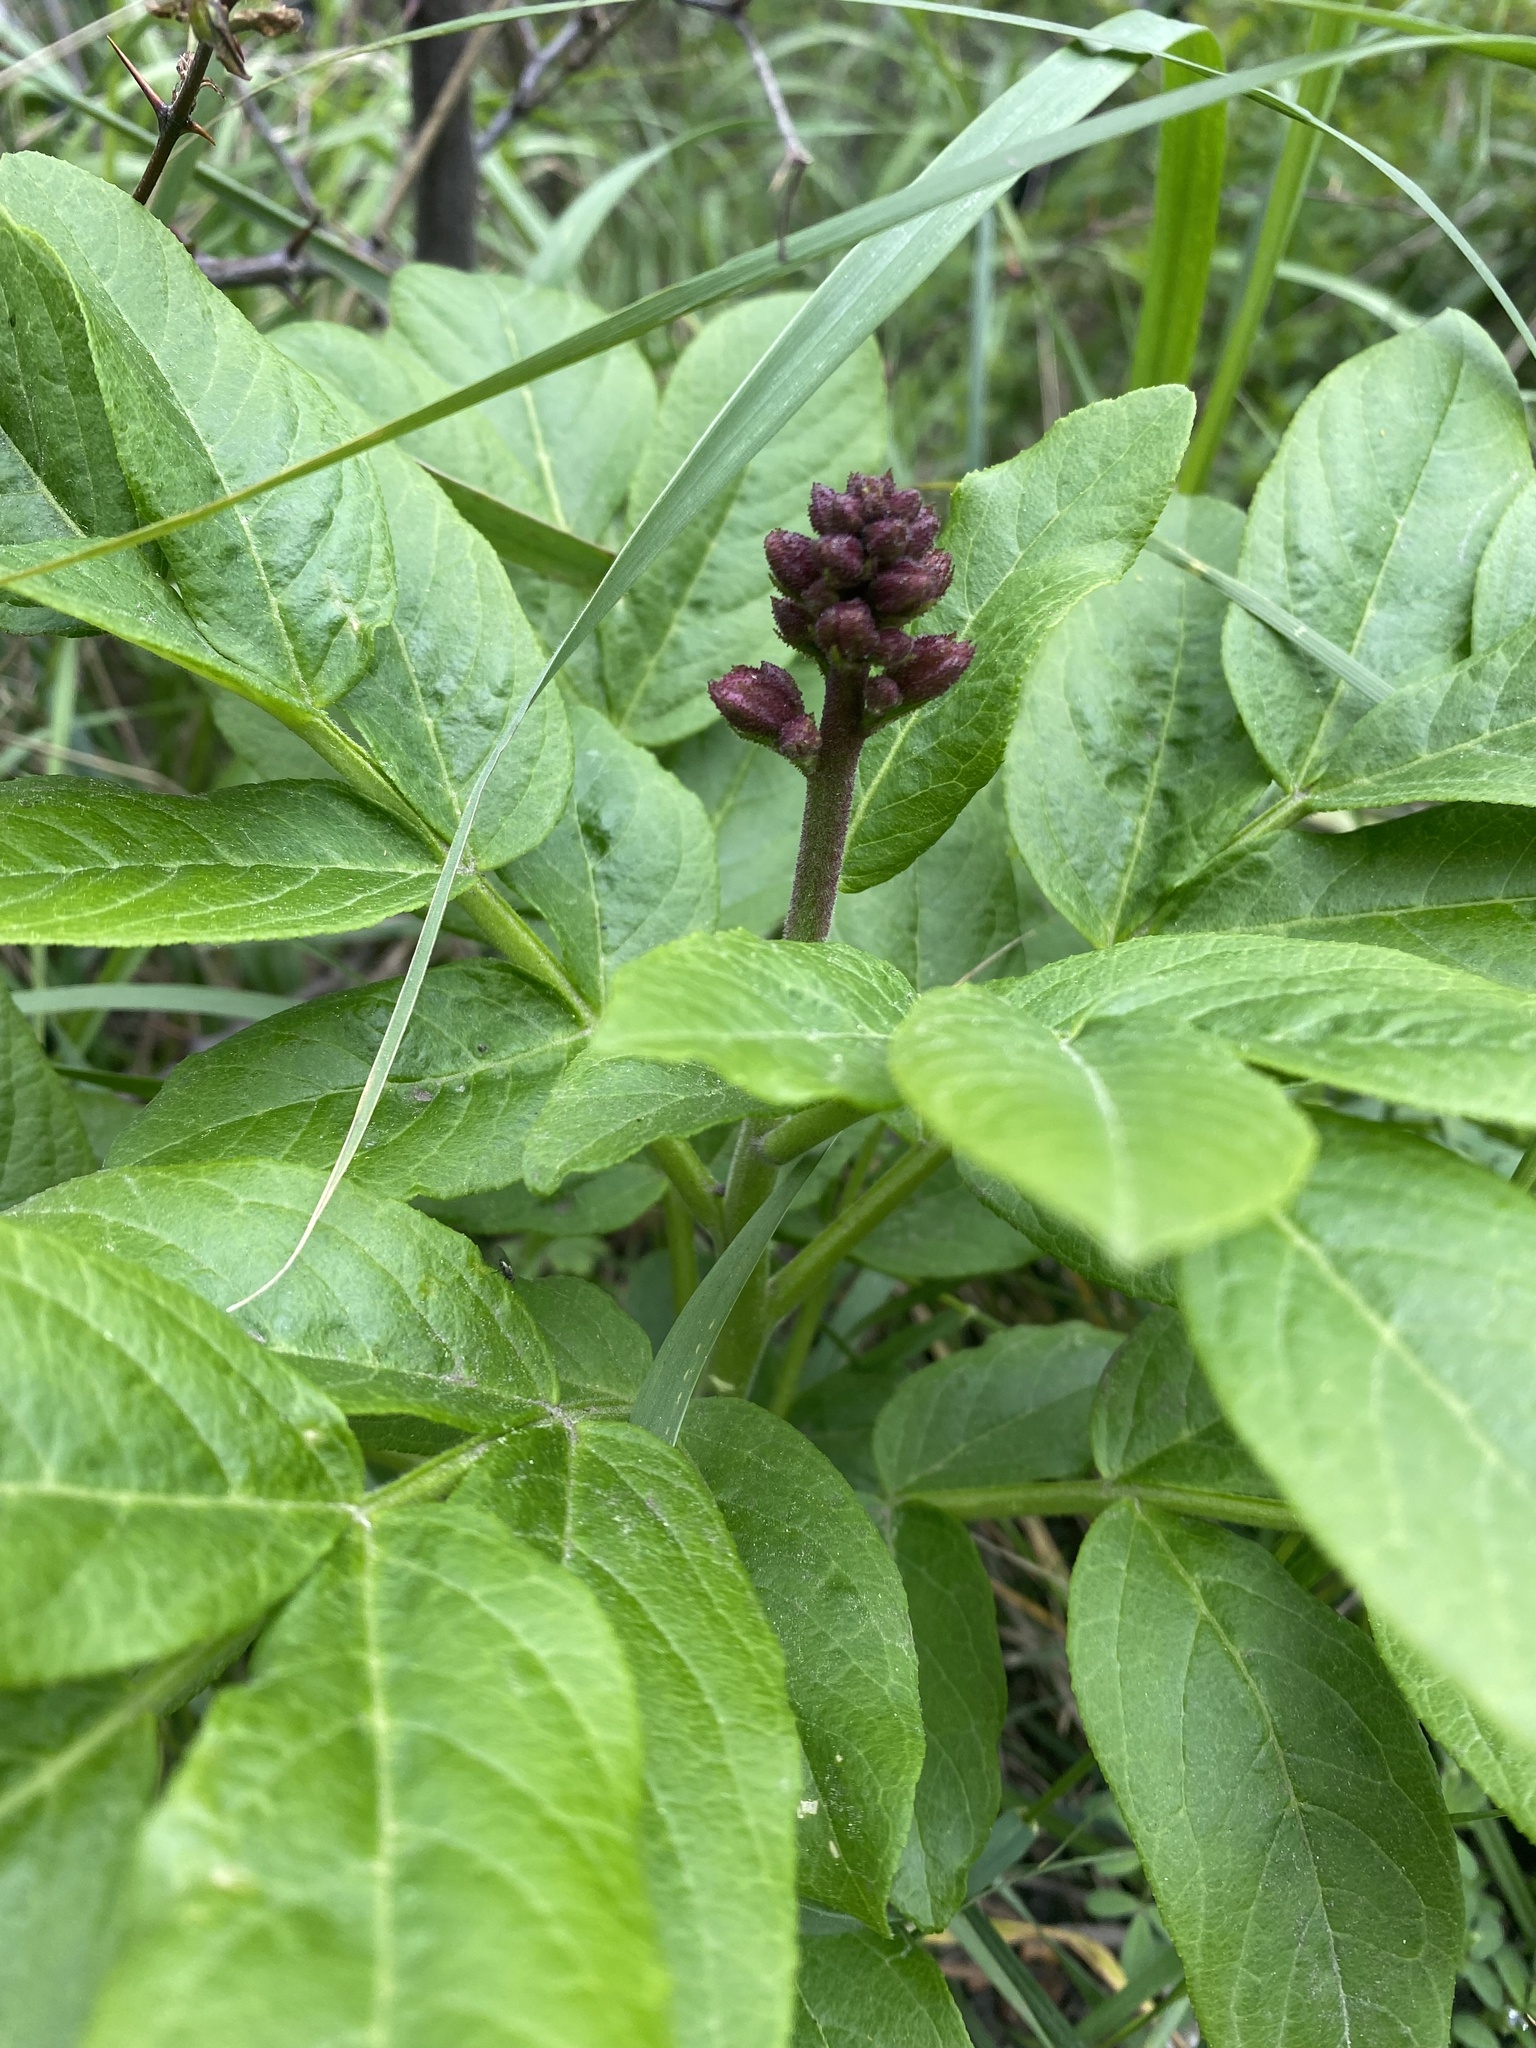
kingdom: Plantae
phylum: Tracheophyta
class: Magnoliopsida
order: Sapindales
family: Rutaceae
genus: Dictamnus
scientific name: Dictamnus albus
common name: Gasplant
